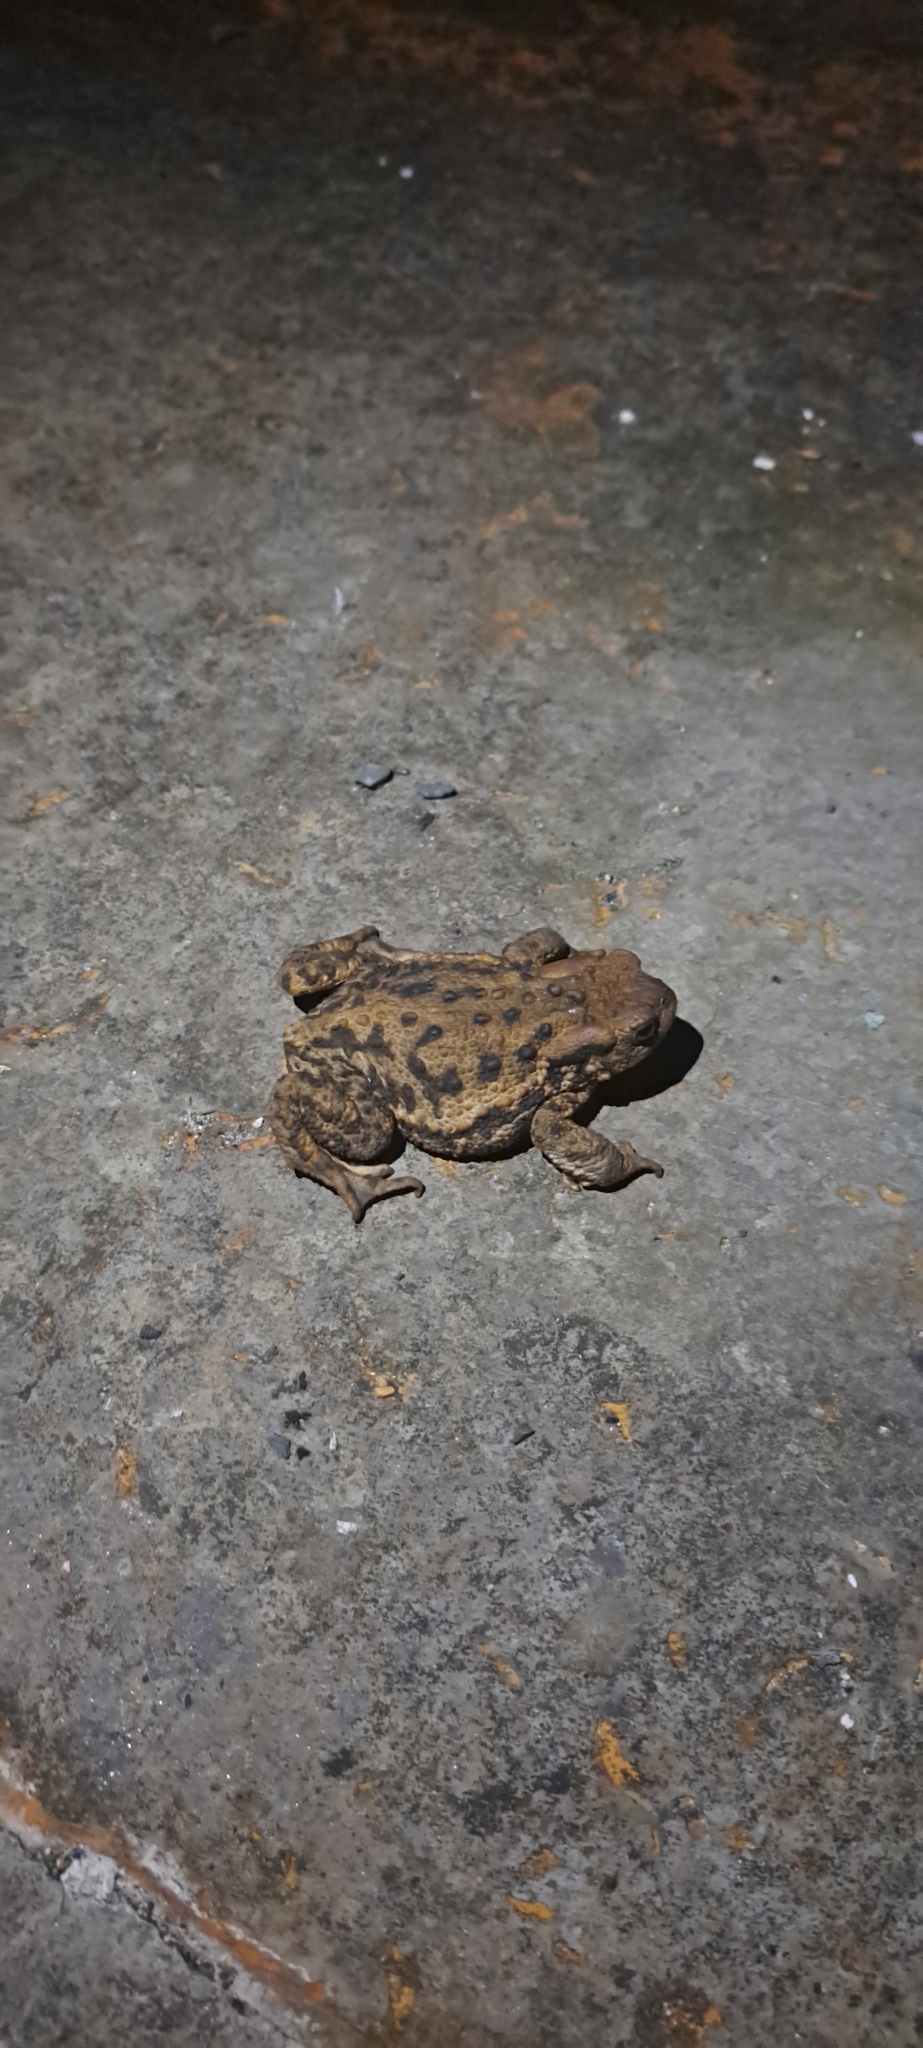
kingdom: Animalia
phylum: Chordata
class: Amphibia
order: Anura
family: Bufonidae
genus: Bufo
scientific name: Bufo bufo
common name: Common toad
